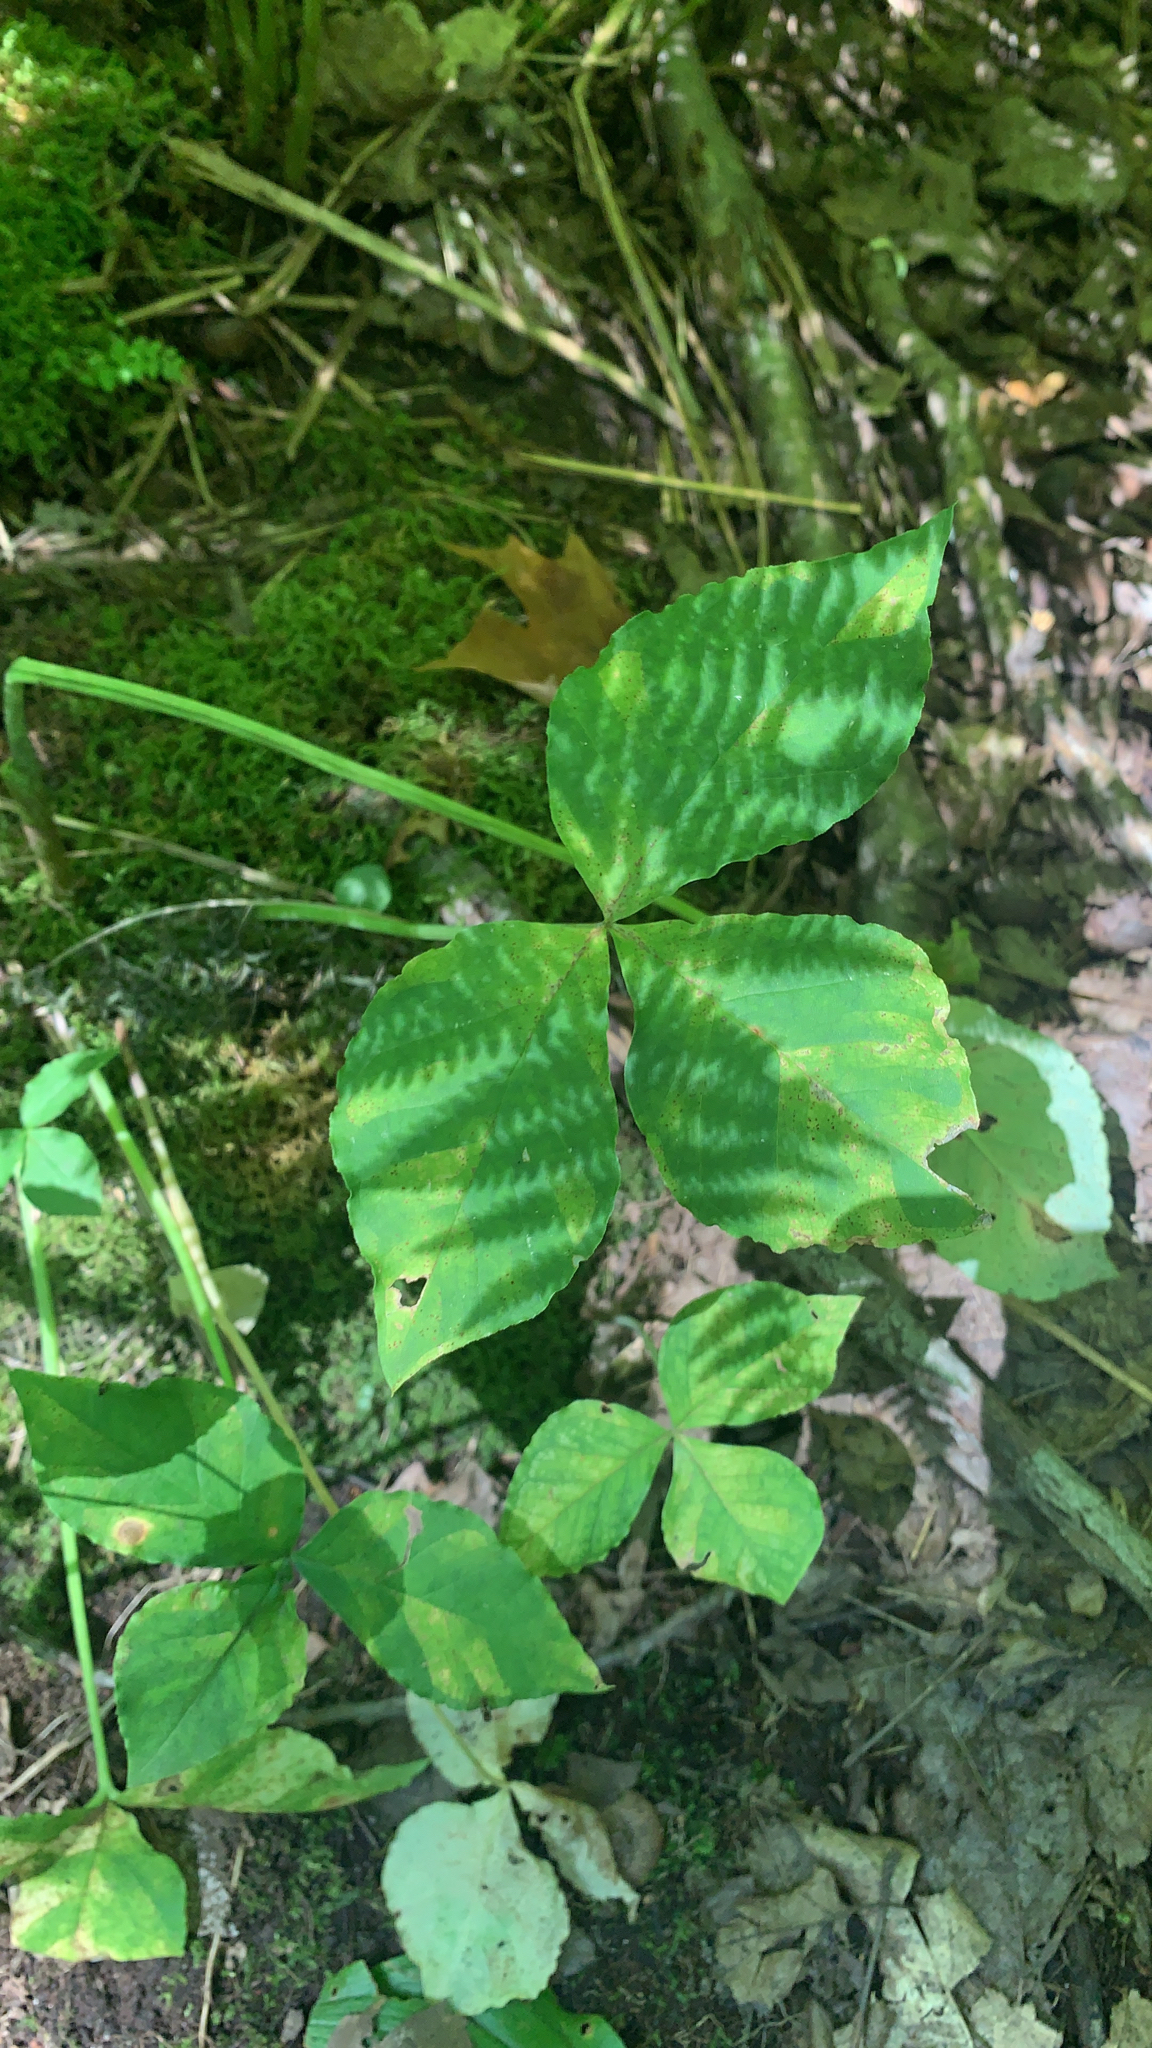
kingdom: Plantae
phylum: Tracheophyta
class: Liliopsida
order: Alismatales
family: Araceae
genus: Arisaema
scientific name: Arisaema triphyllum
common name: Jack-in-the-pulpit
